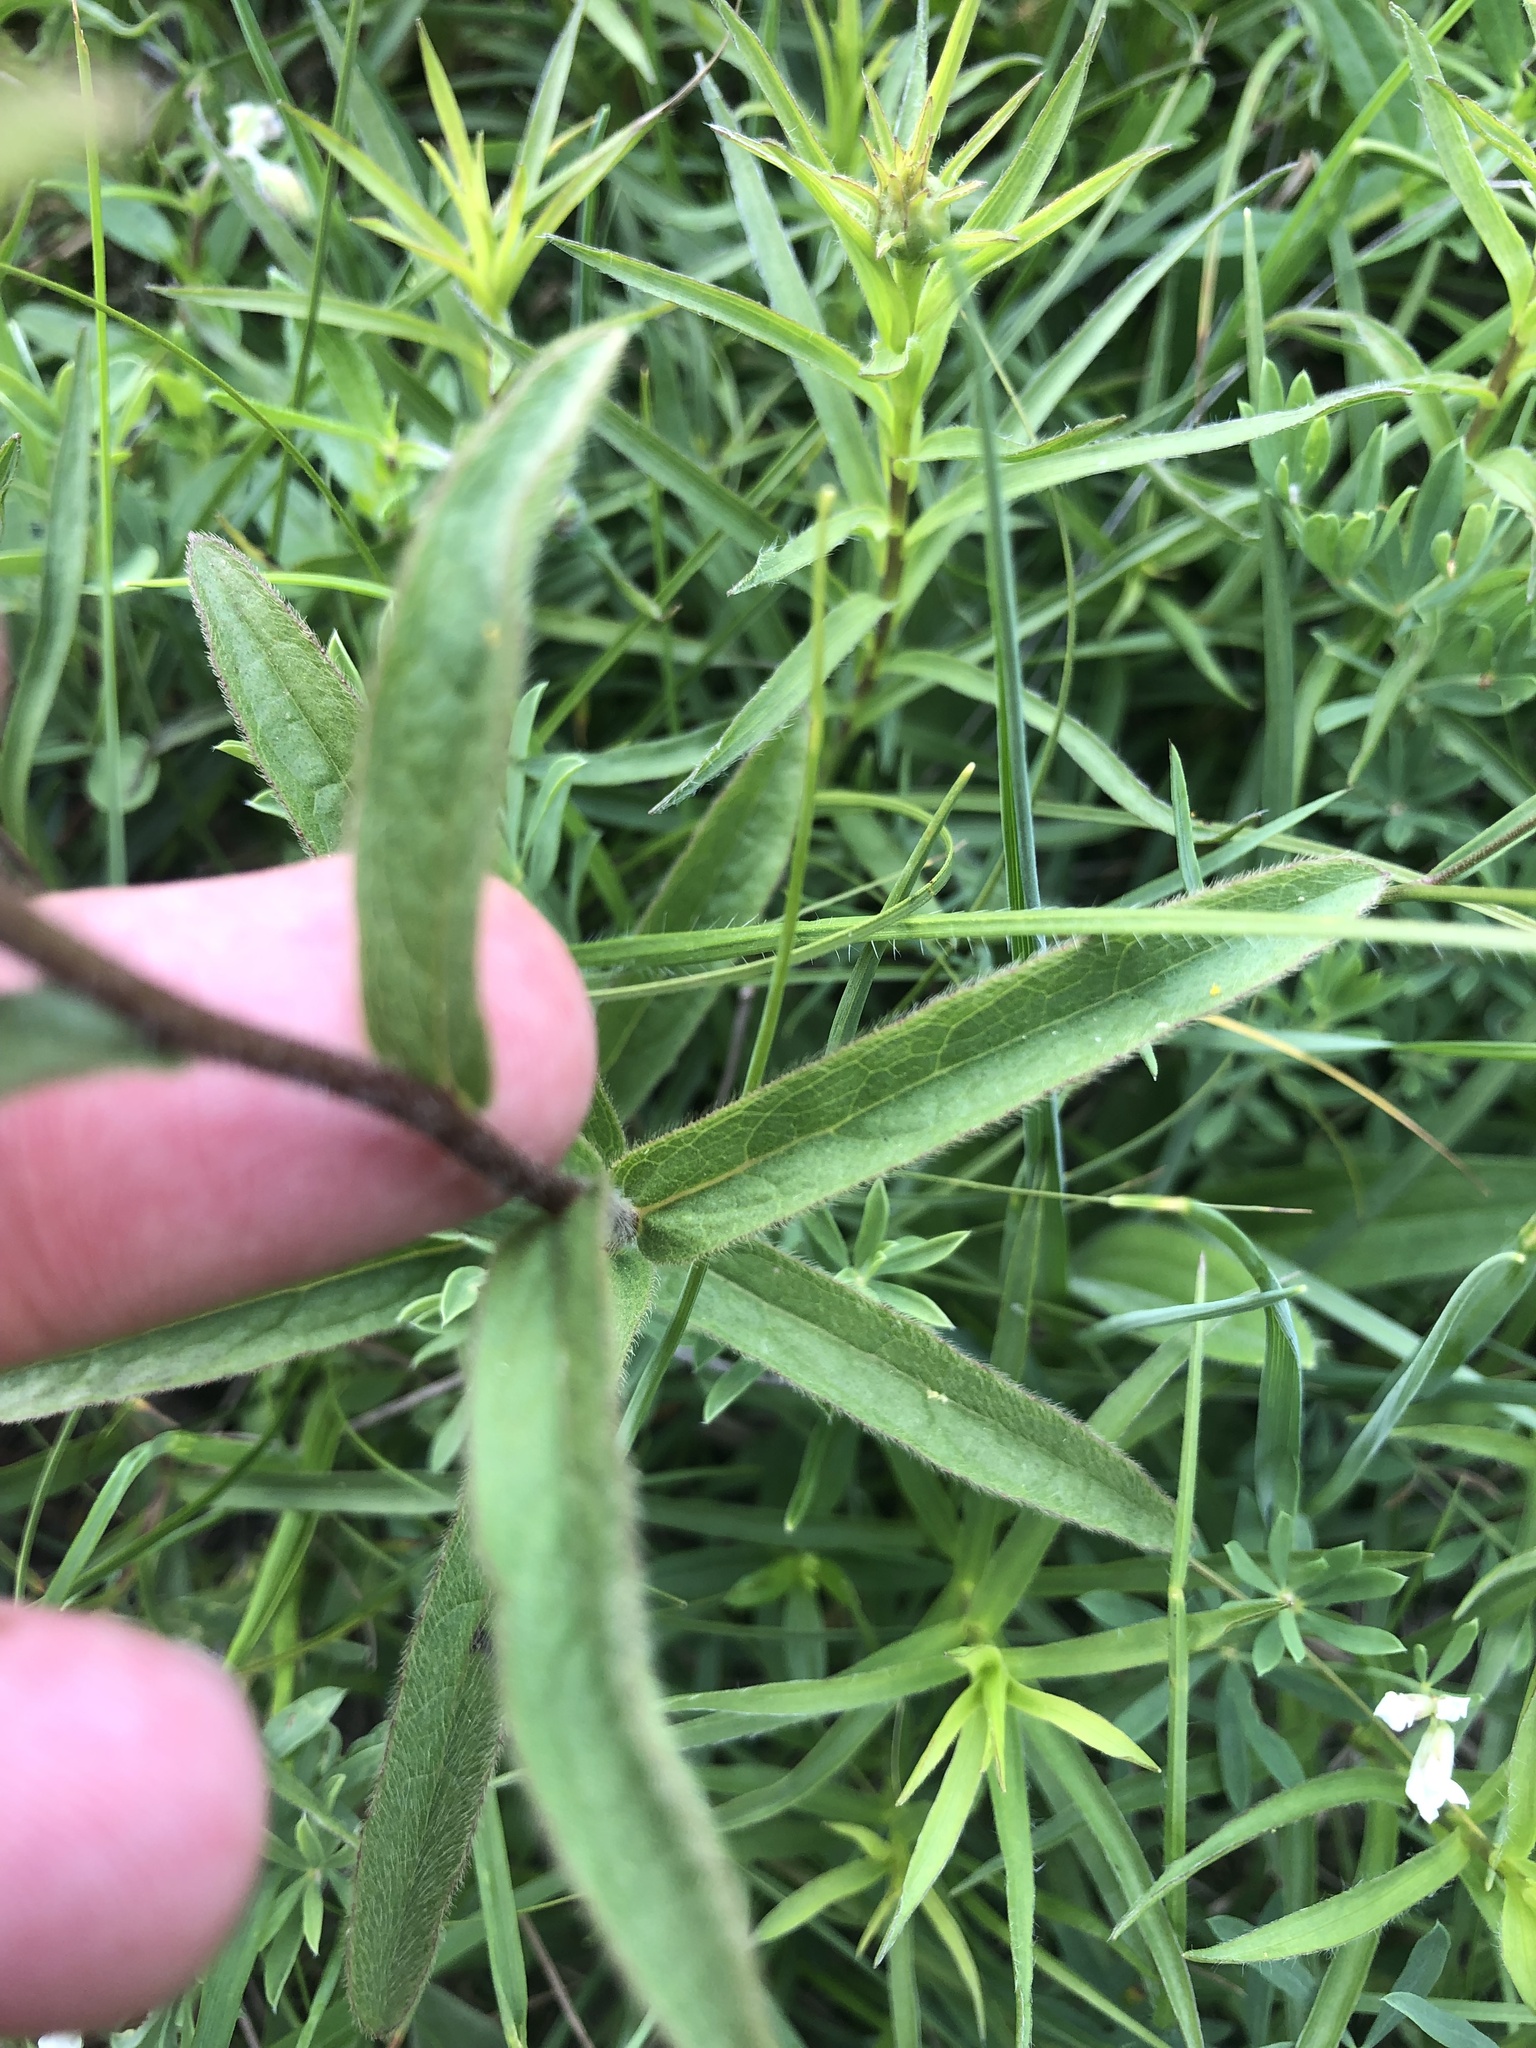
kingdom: Plantae
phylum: Tracheophyta
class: Magnoliopsida
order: Asterales
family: Asteraceae
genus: Pentanema
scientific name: Pentanema hirtum
